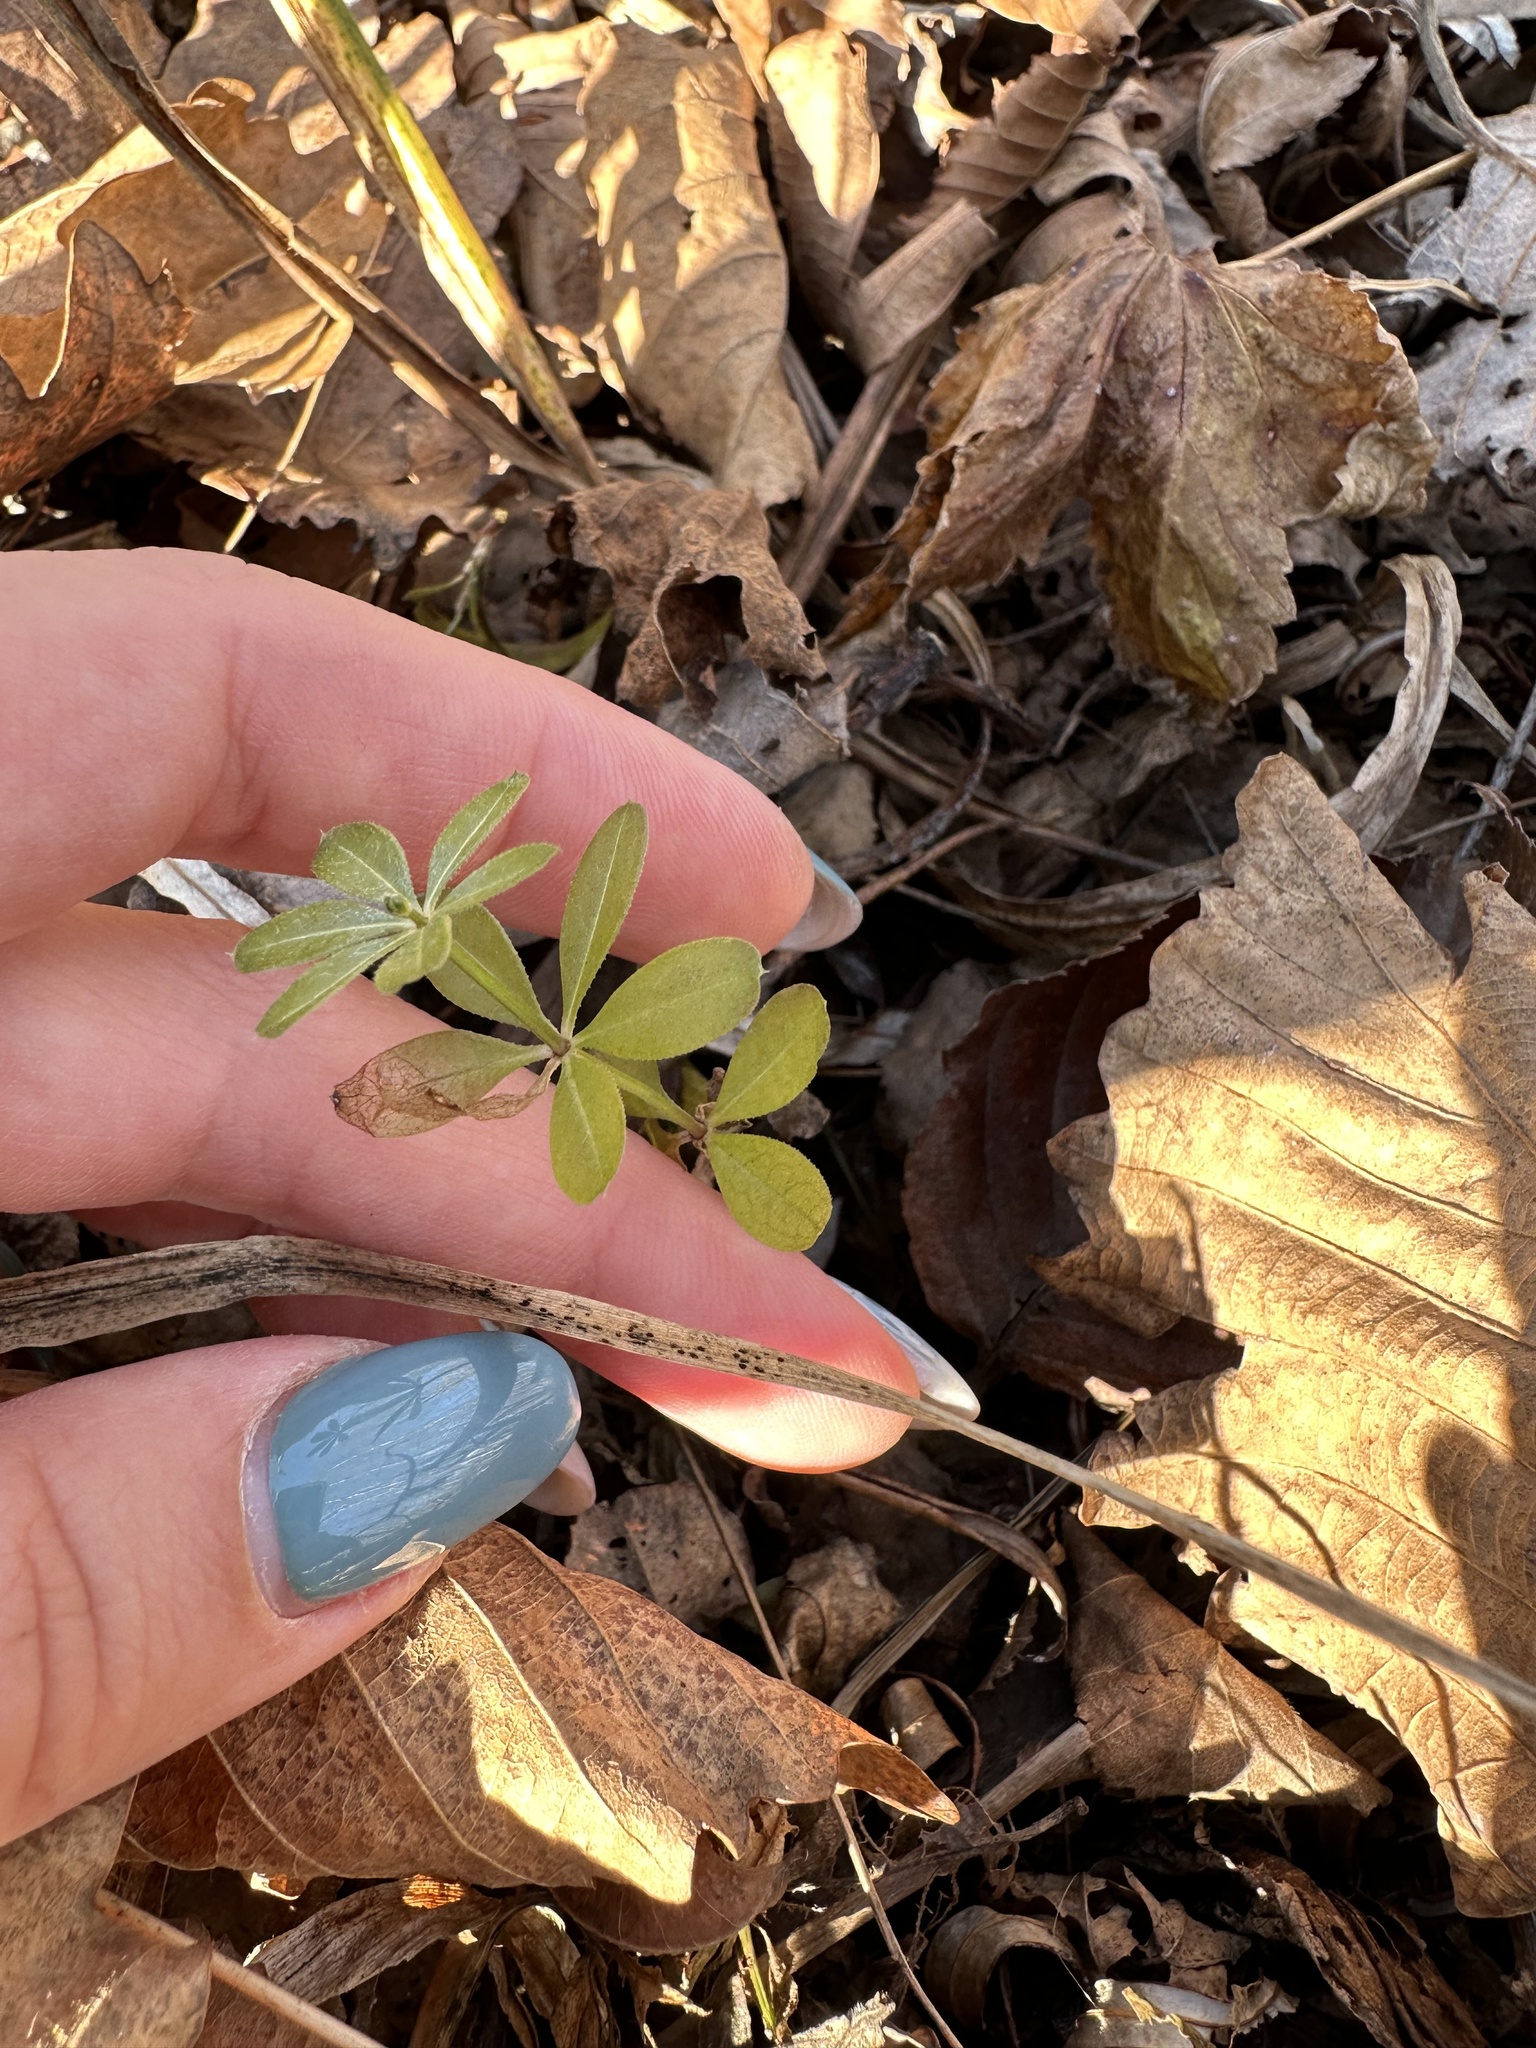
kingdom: Plantae
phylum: Tracheophyta
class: Magnoliopsida
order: Gentianales
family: Rubiaceae
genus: Galium
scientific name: Galium dahuricum
